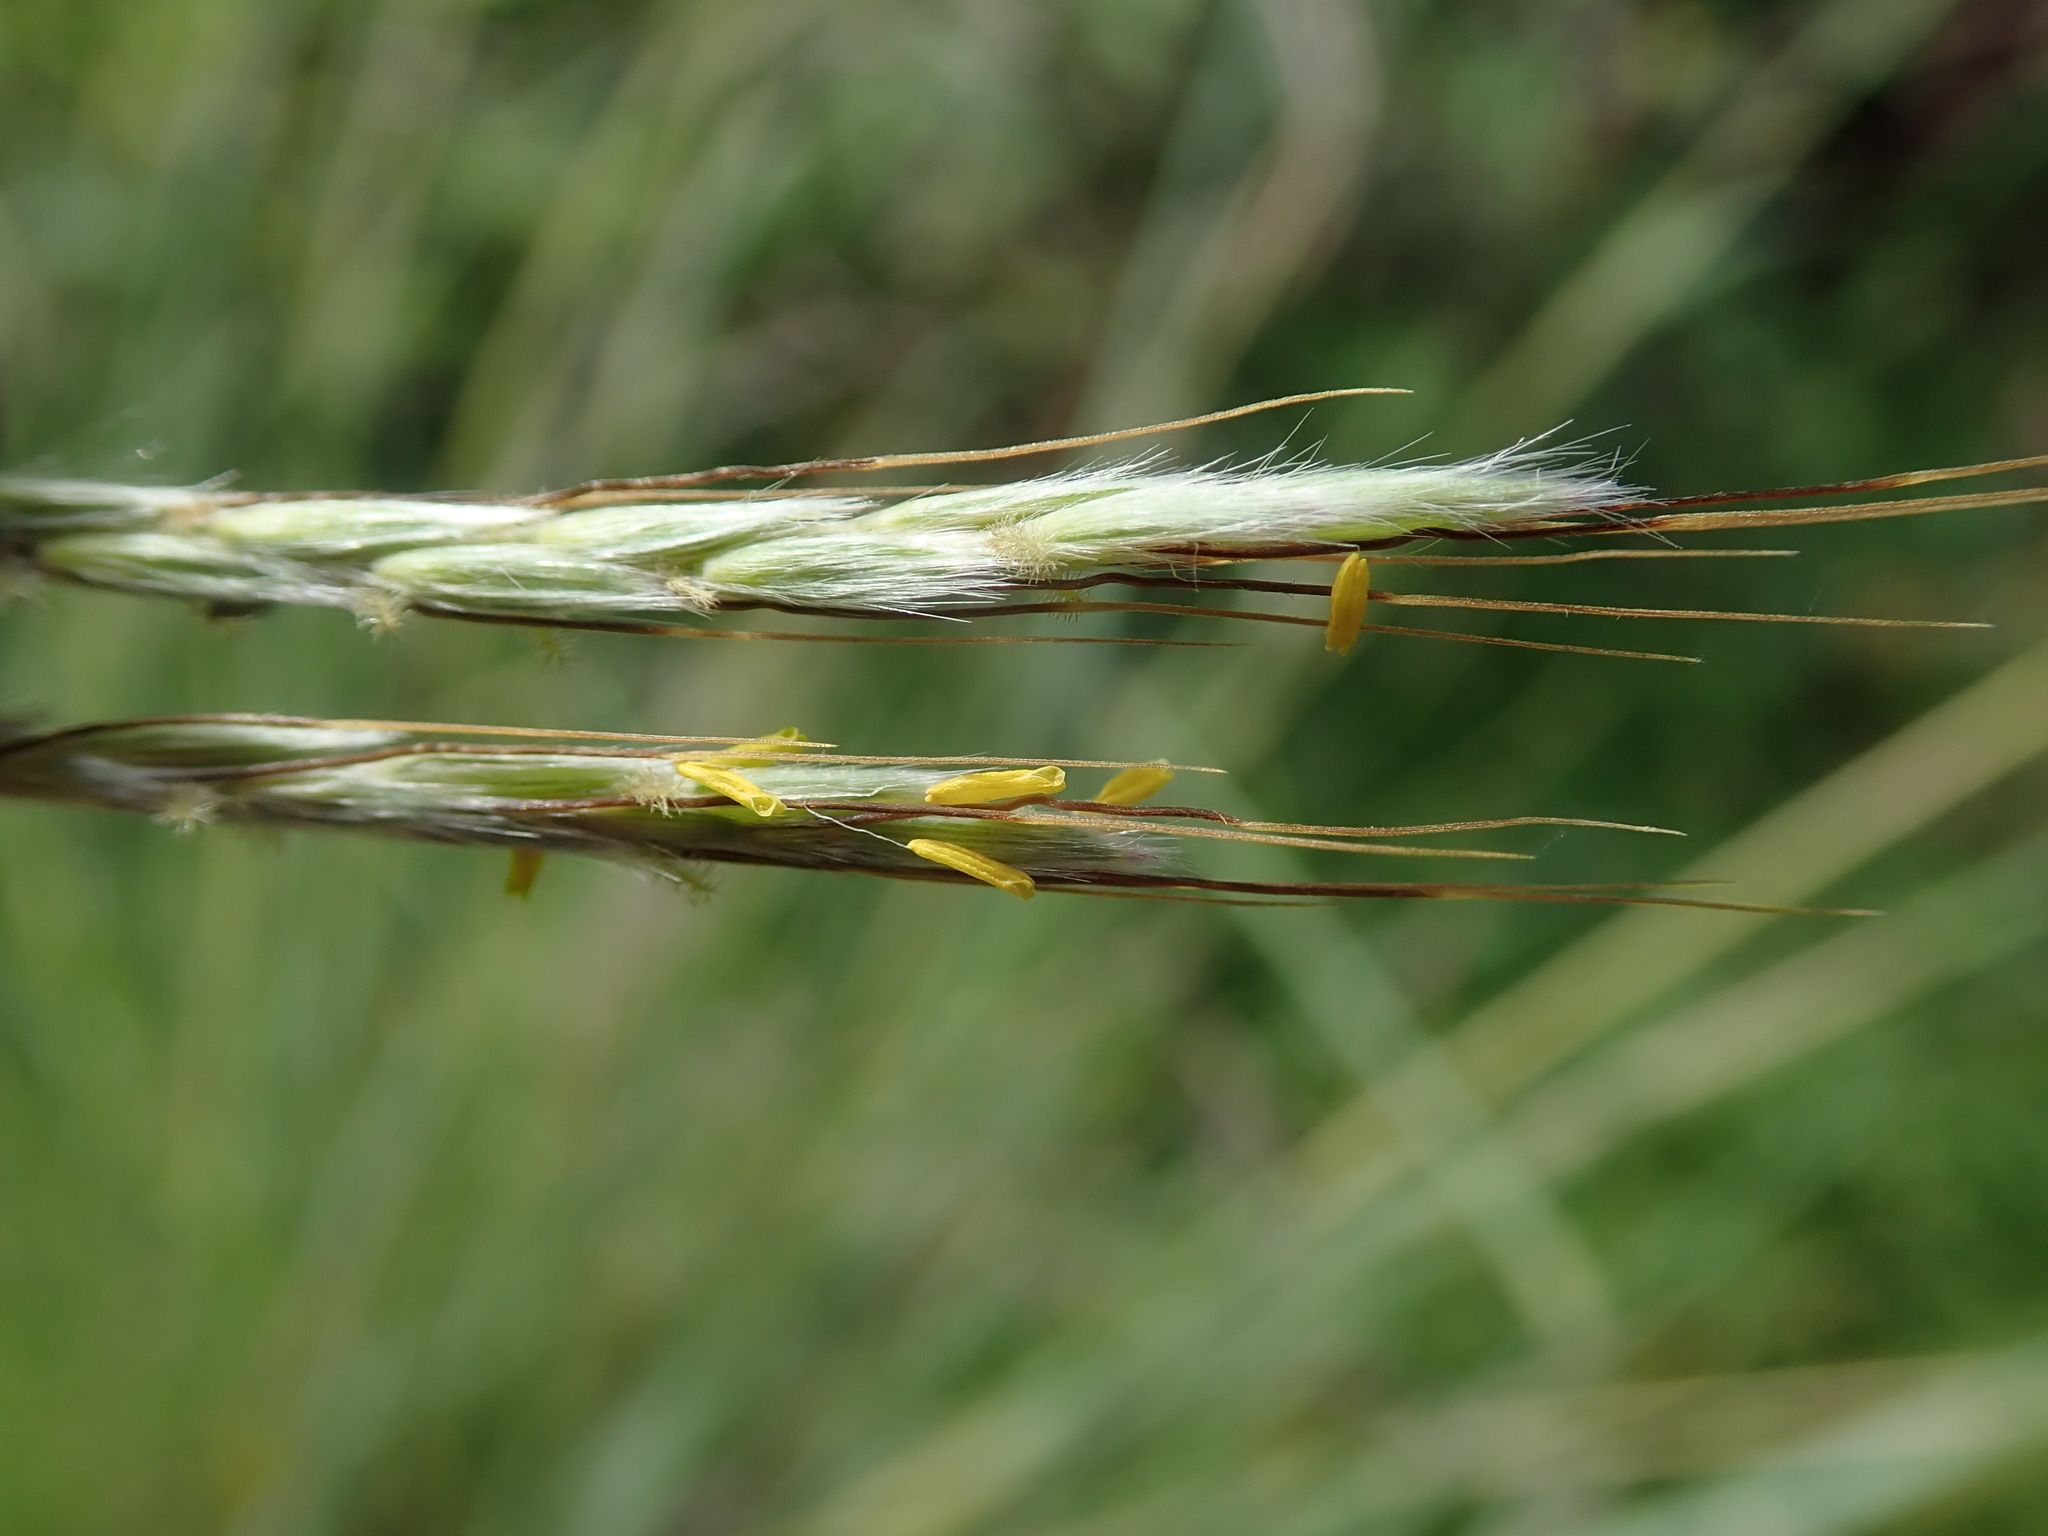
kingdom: Plantae
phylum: Tracheophyta
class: Liliopsida
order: Poales
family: Poaceae
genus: Hyparrhenia
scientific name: Hyparrhenia hirta
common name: Thatching grass
